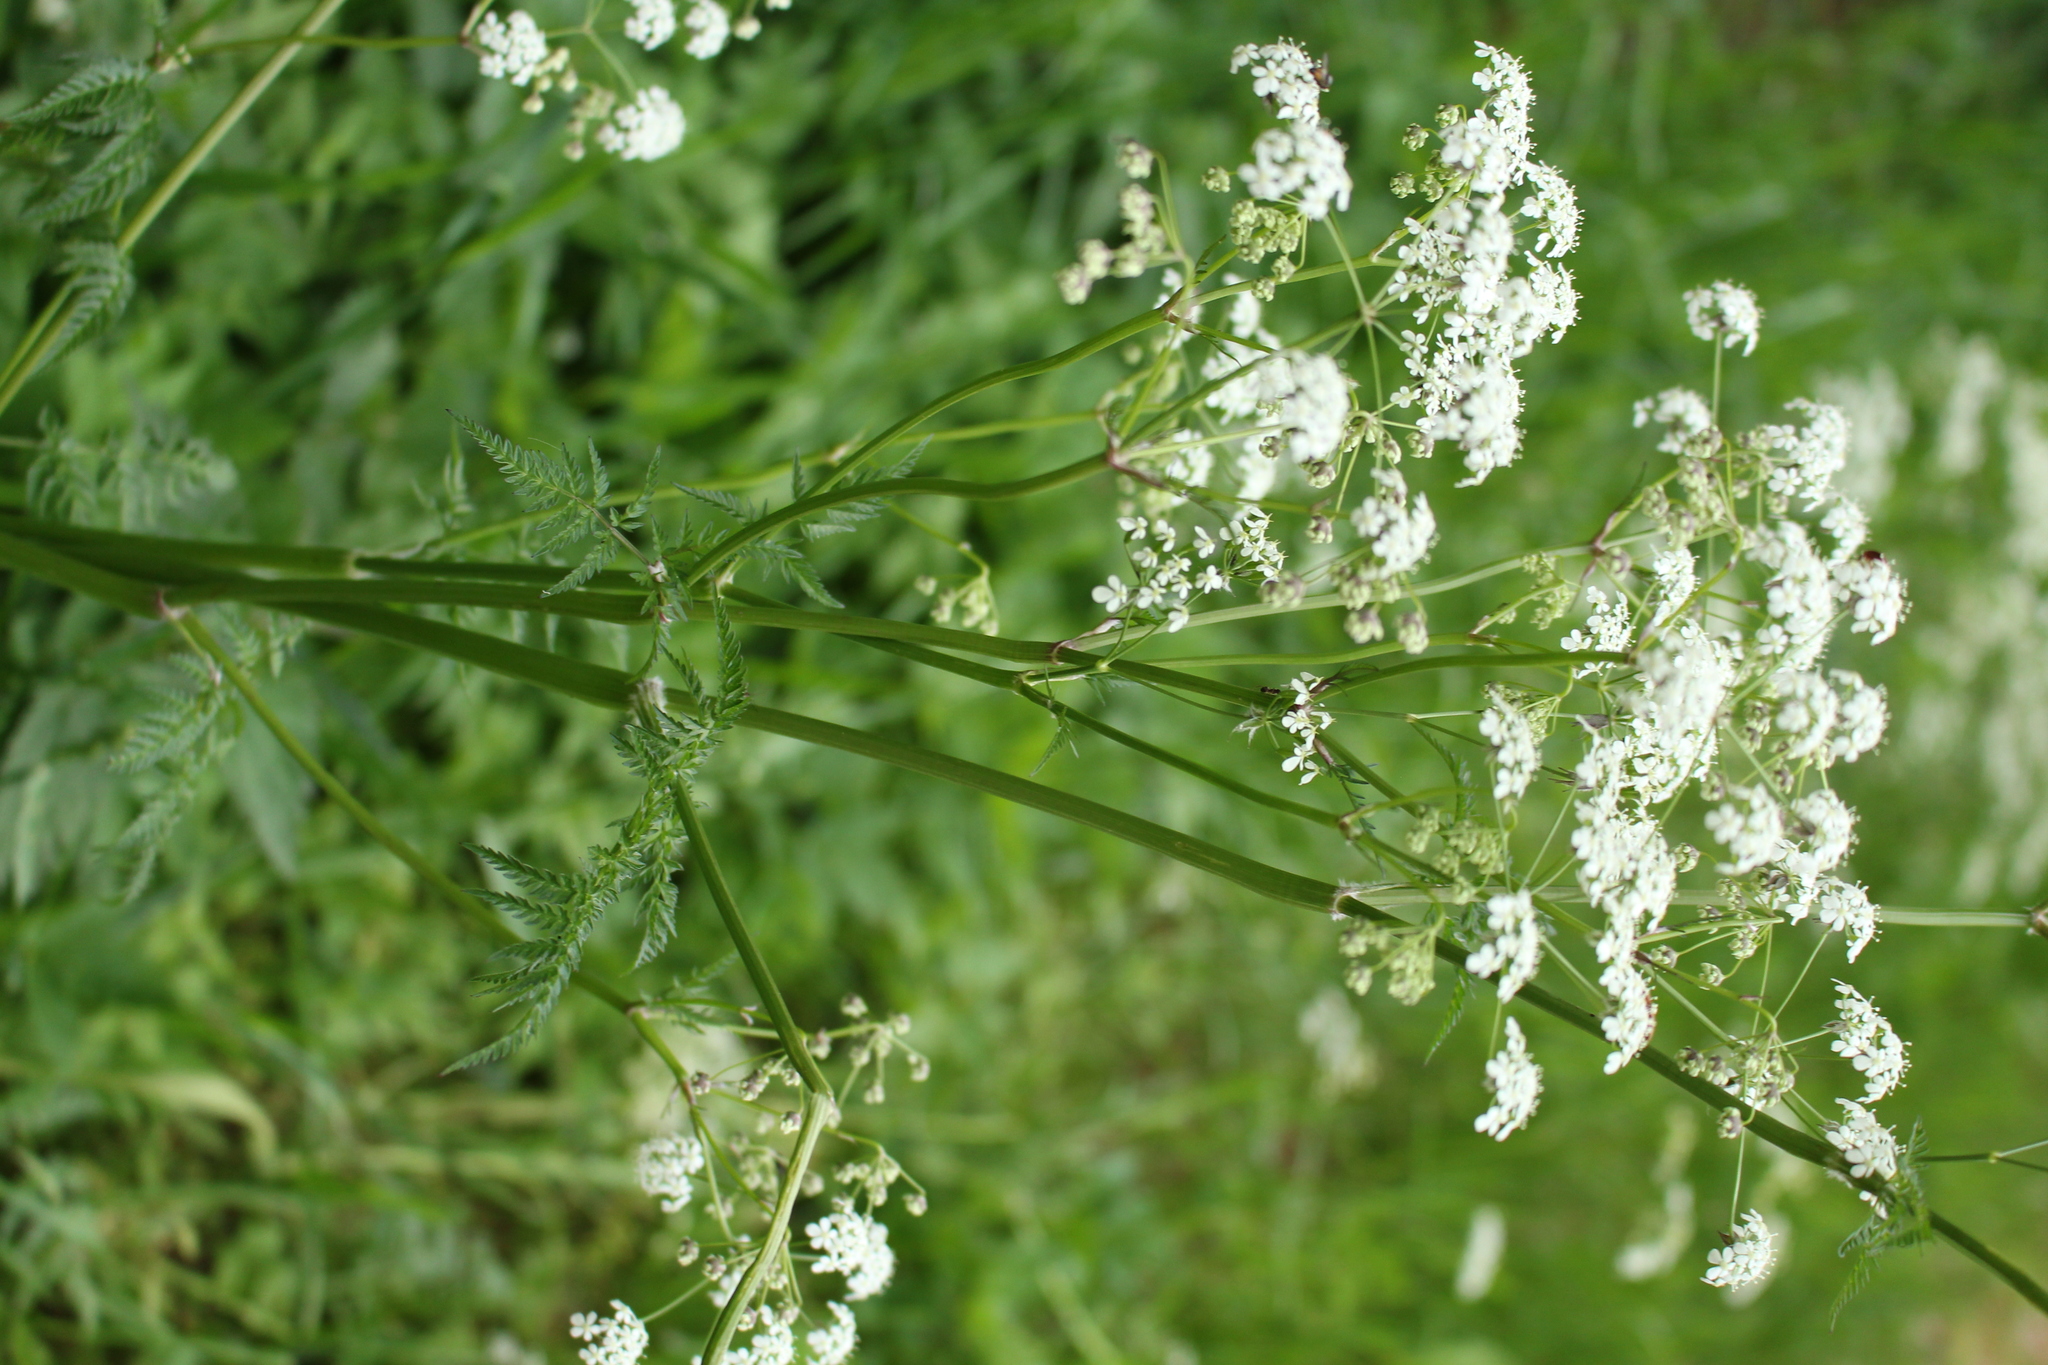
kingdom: Plantae
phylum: Tracheophyta
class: Magnoliopsida
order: Apiales
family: Apiaceae
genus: Anthriscus
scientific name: Anthriscus sylvestris
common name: Cow parsley
